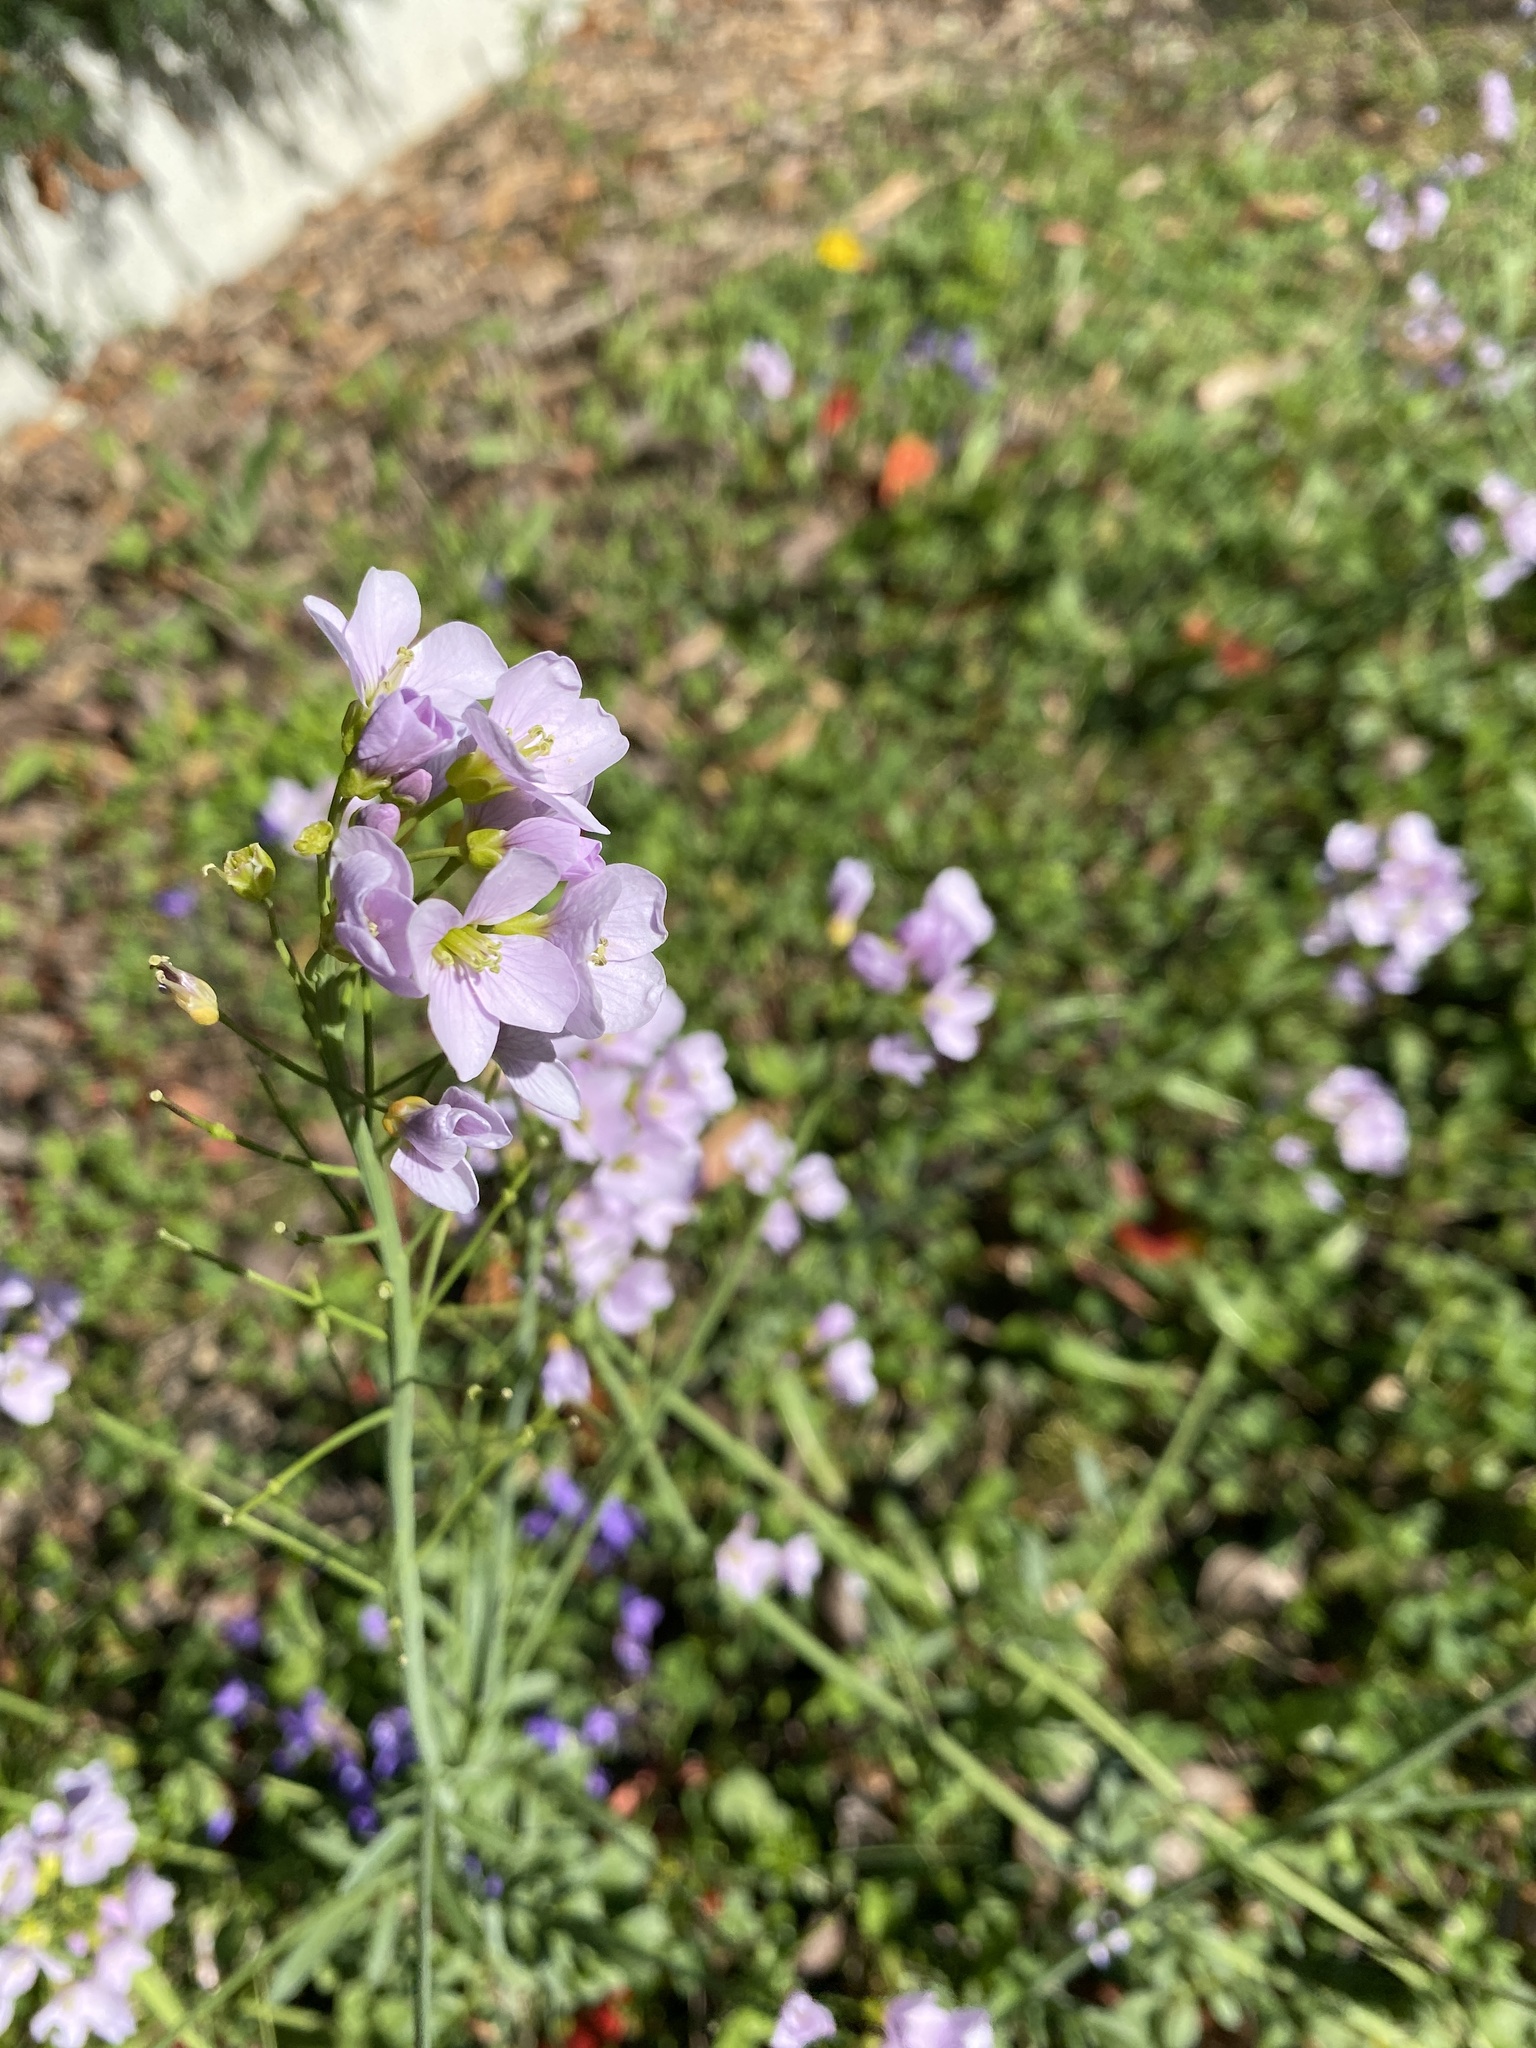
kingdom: Plantae
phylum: Tracheophyta
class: Magnoliopsida
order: Brassicales
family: Brassicaceae
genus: Cardamine
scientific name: Cardamine pratensis
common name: Cuckoo flower
